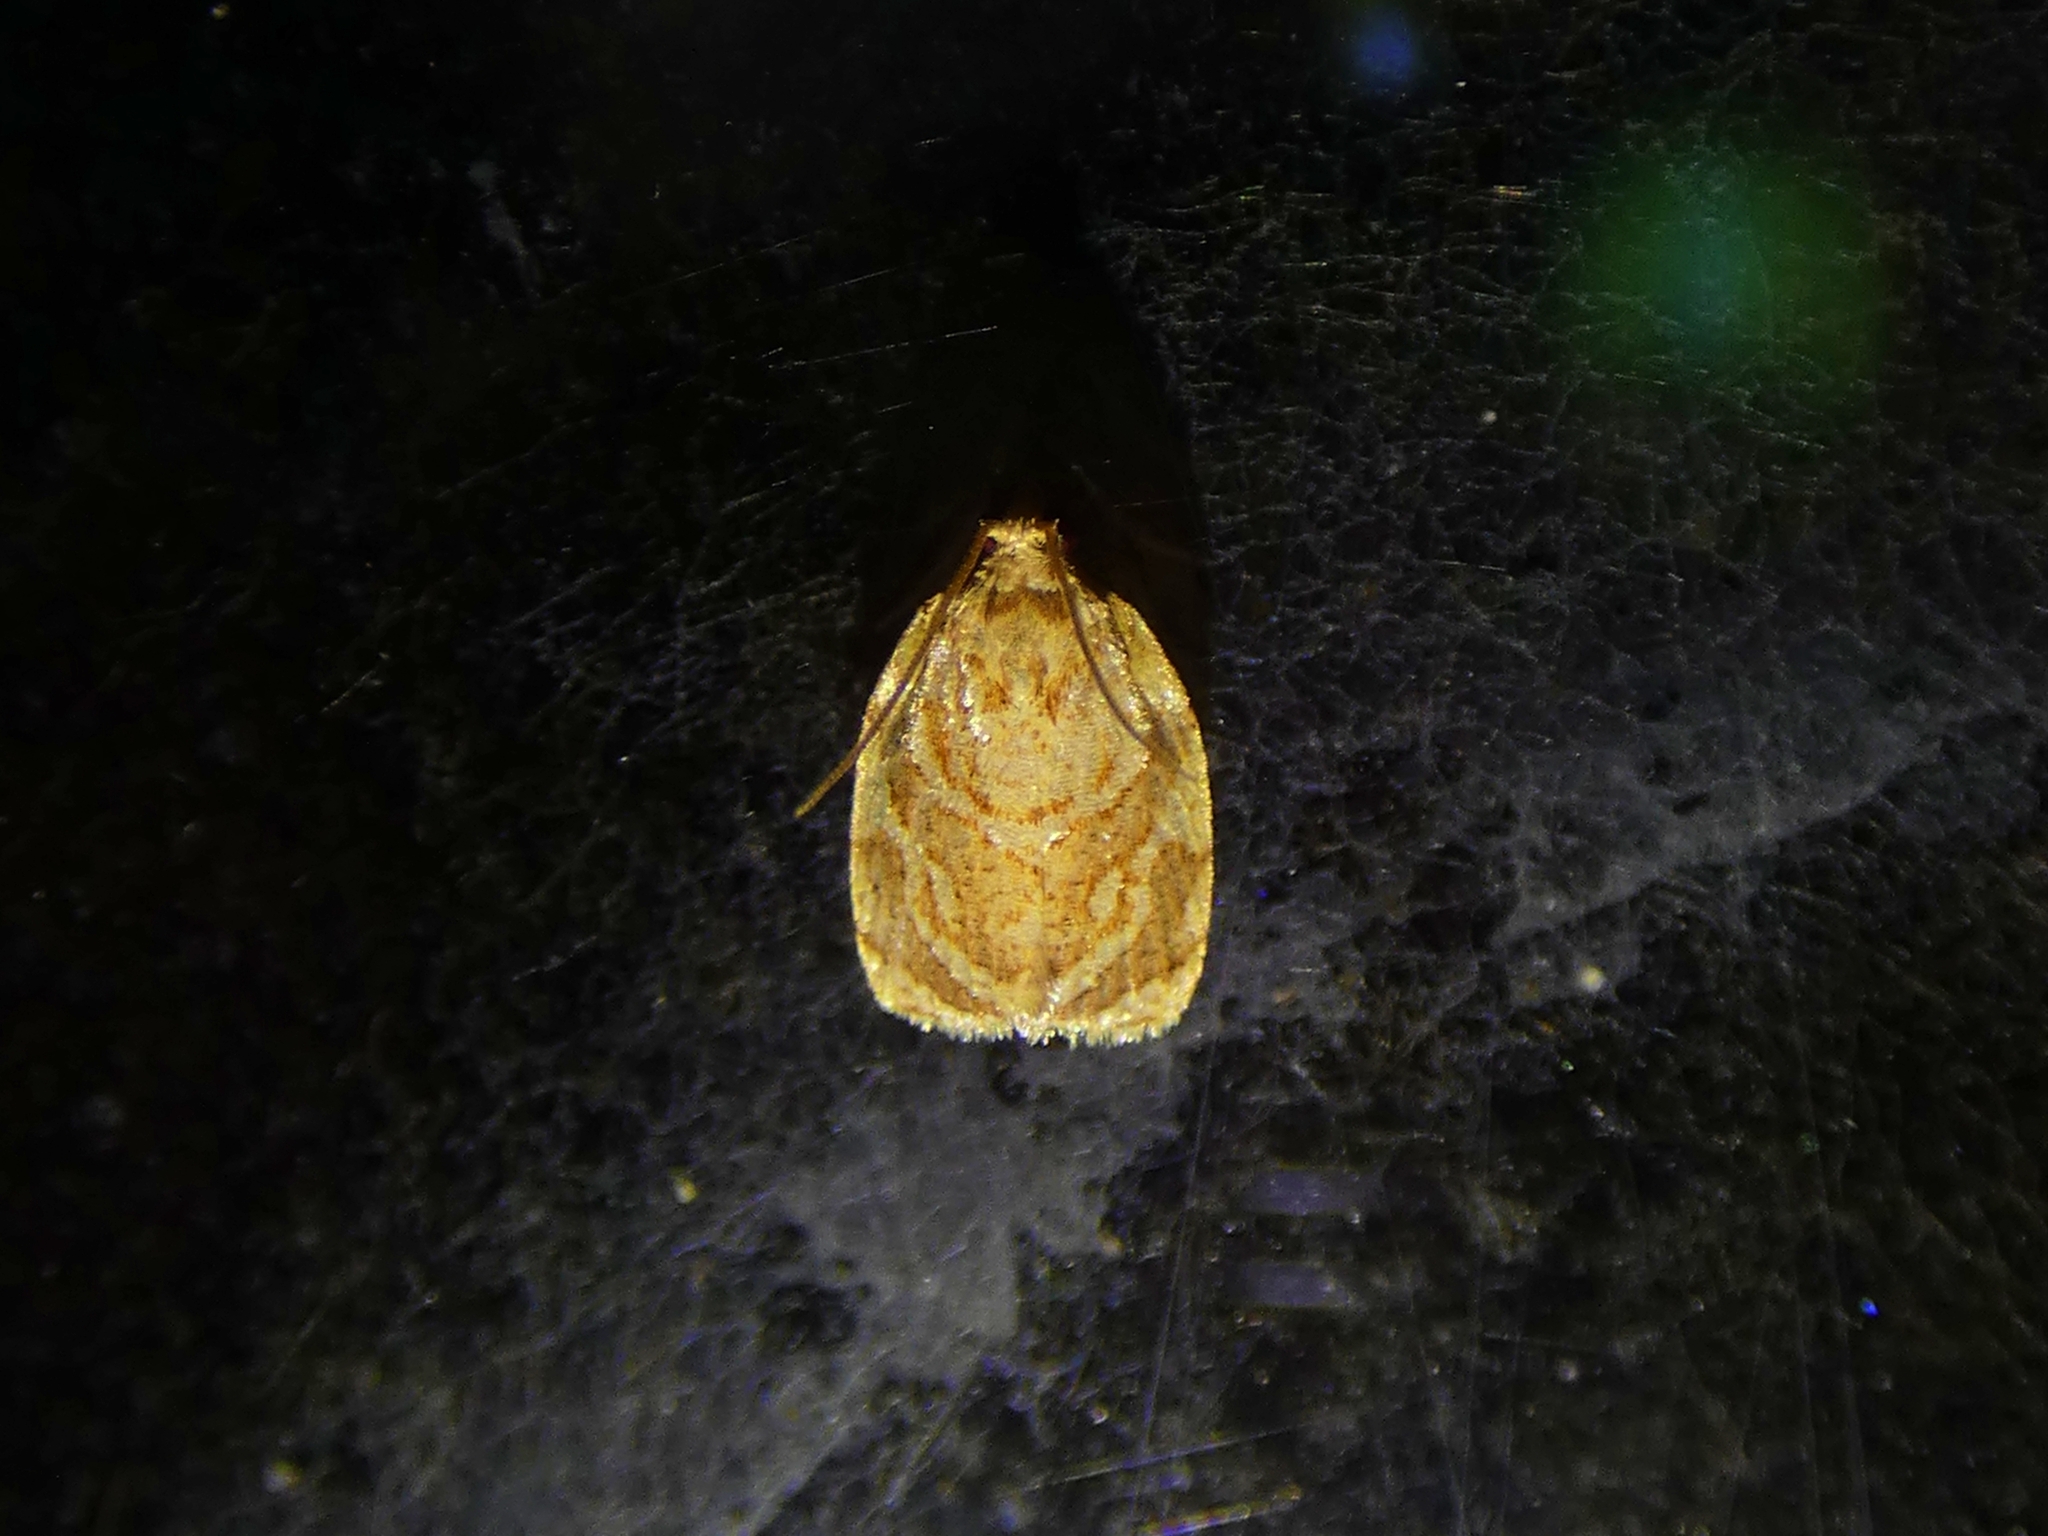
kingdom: Animalia
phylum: Arthropoda
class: Insecta
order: Lepidoptera
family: Tortricidae
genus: Adoxophyes
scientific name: Adoxophyes templana
